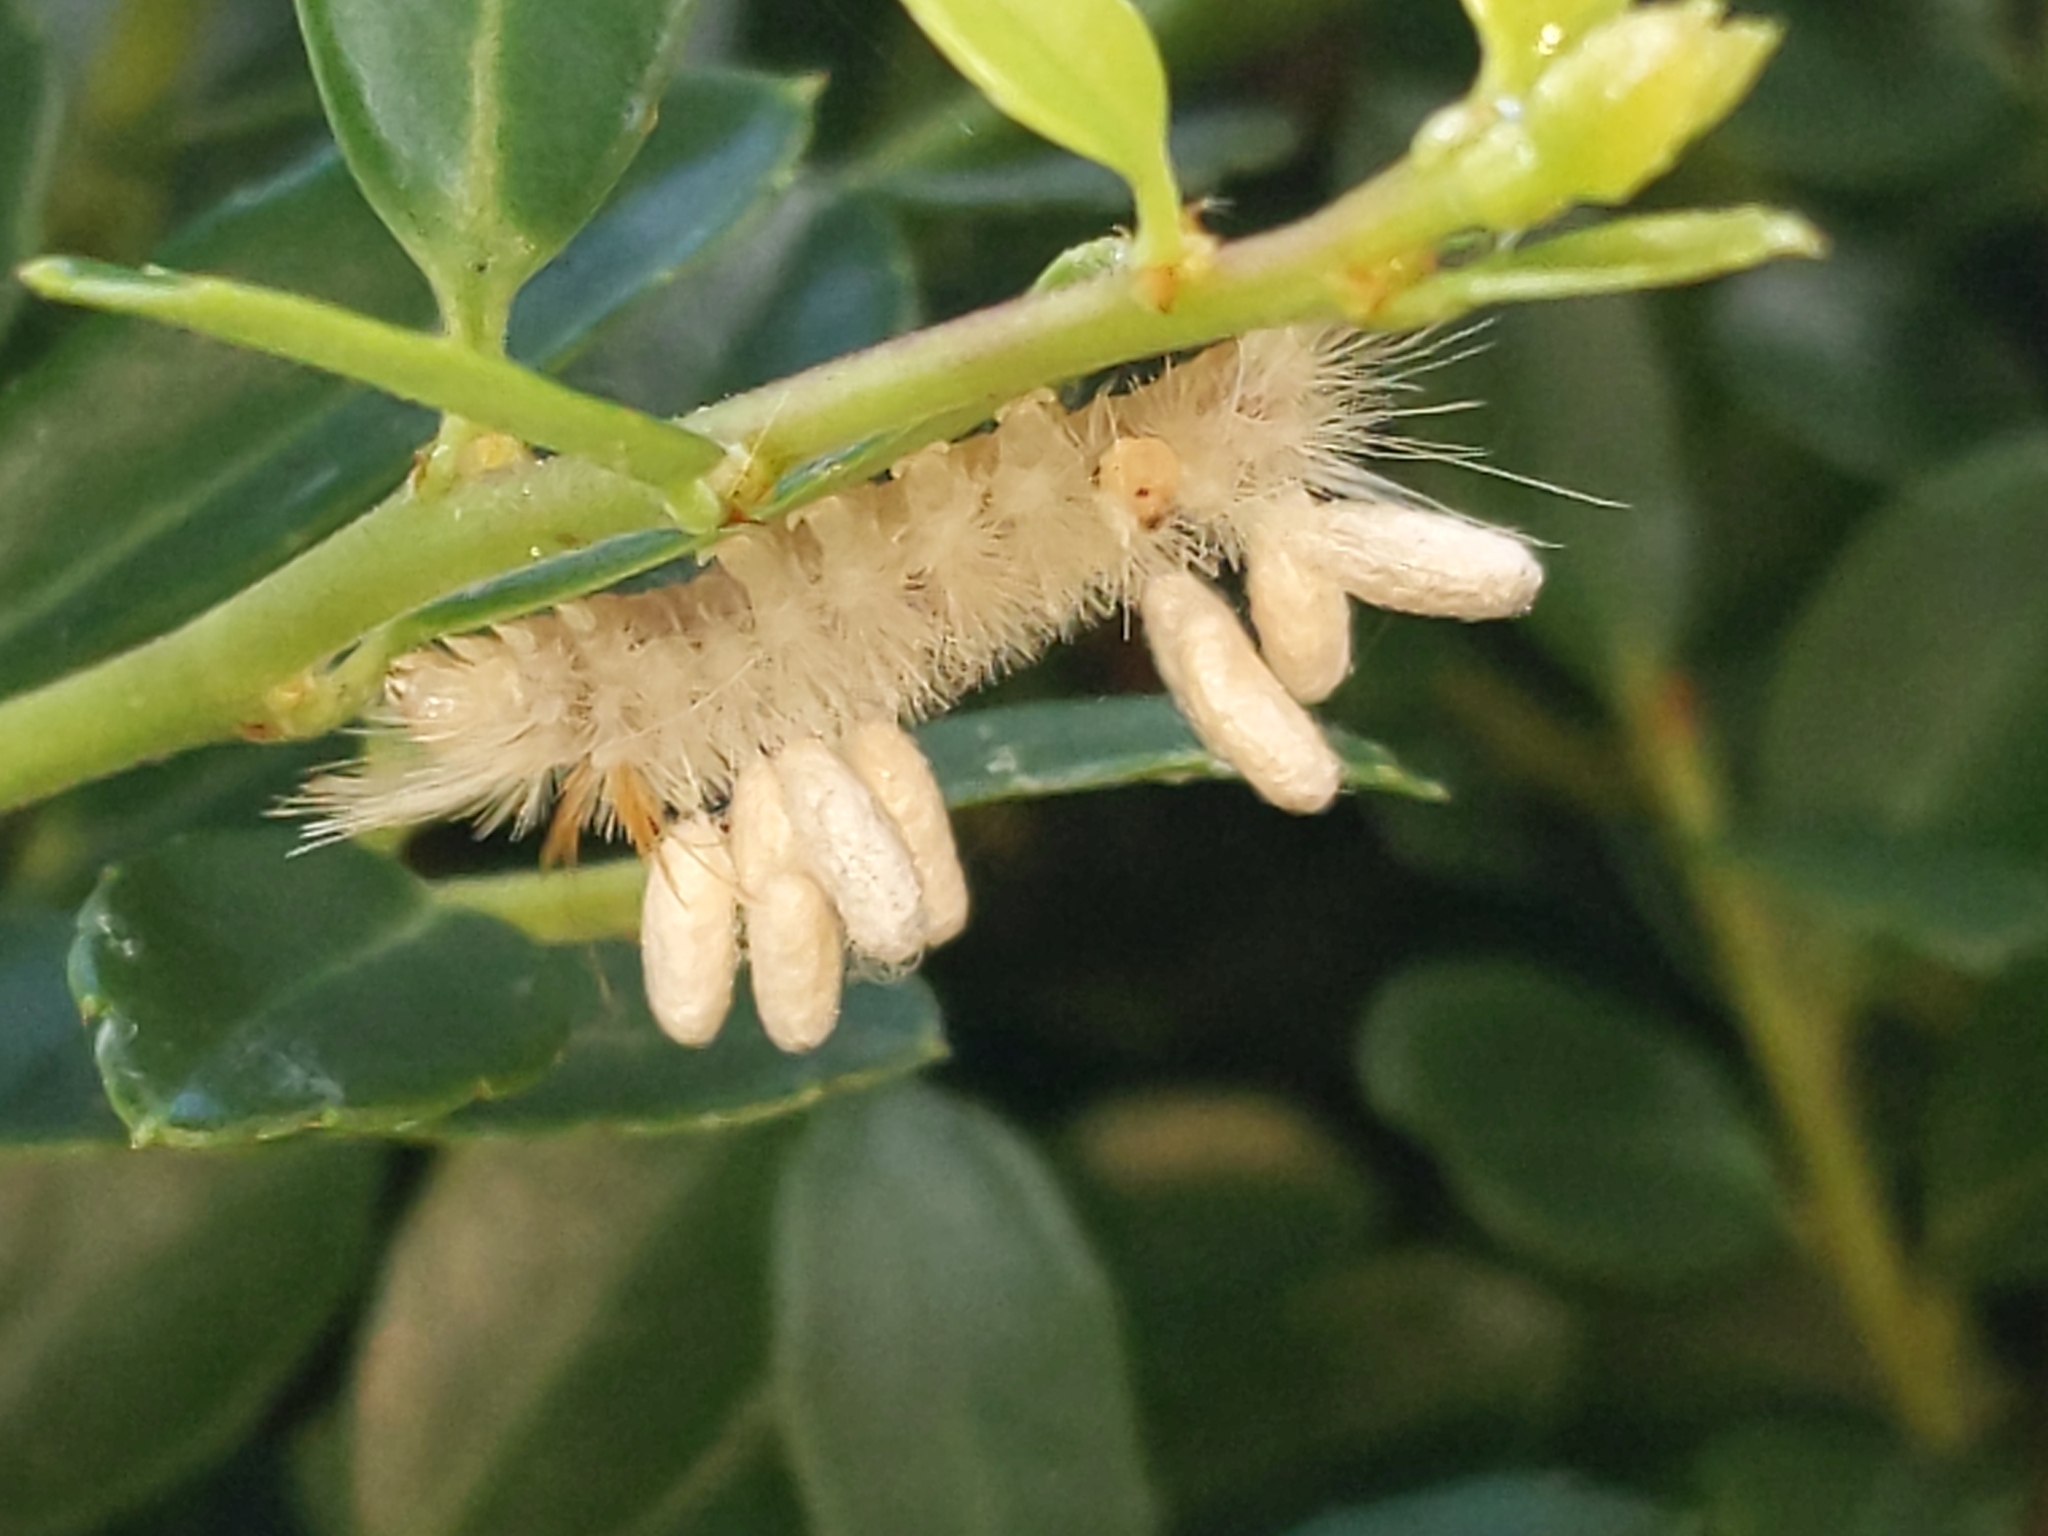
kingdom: Animalia
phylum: Arthropoda
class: Insecta
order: Lepidoptera
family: Erebidae
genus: Halysidota
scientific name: Halysidota harrisii
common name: Sycamore tussock moth
